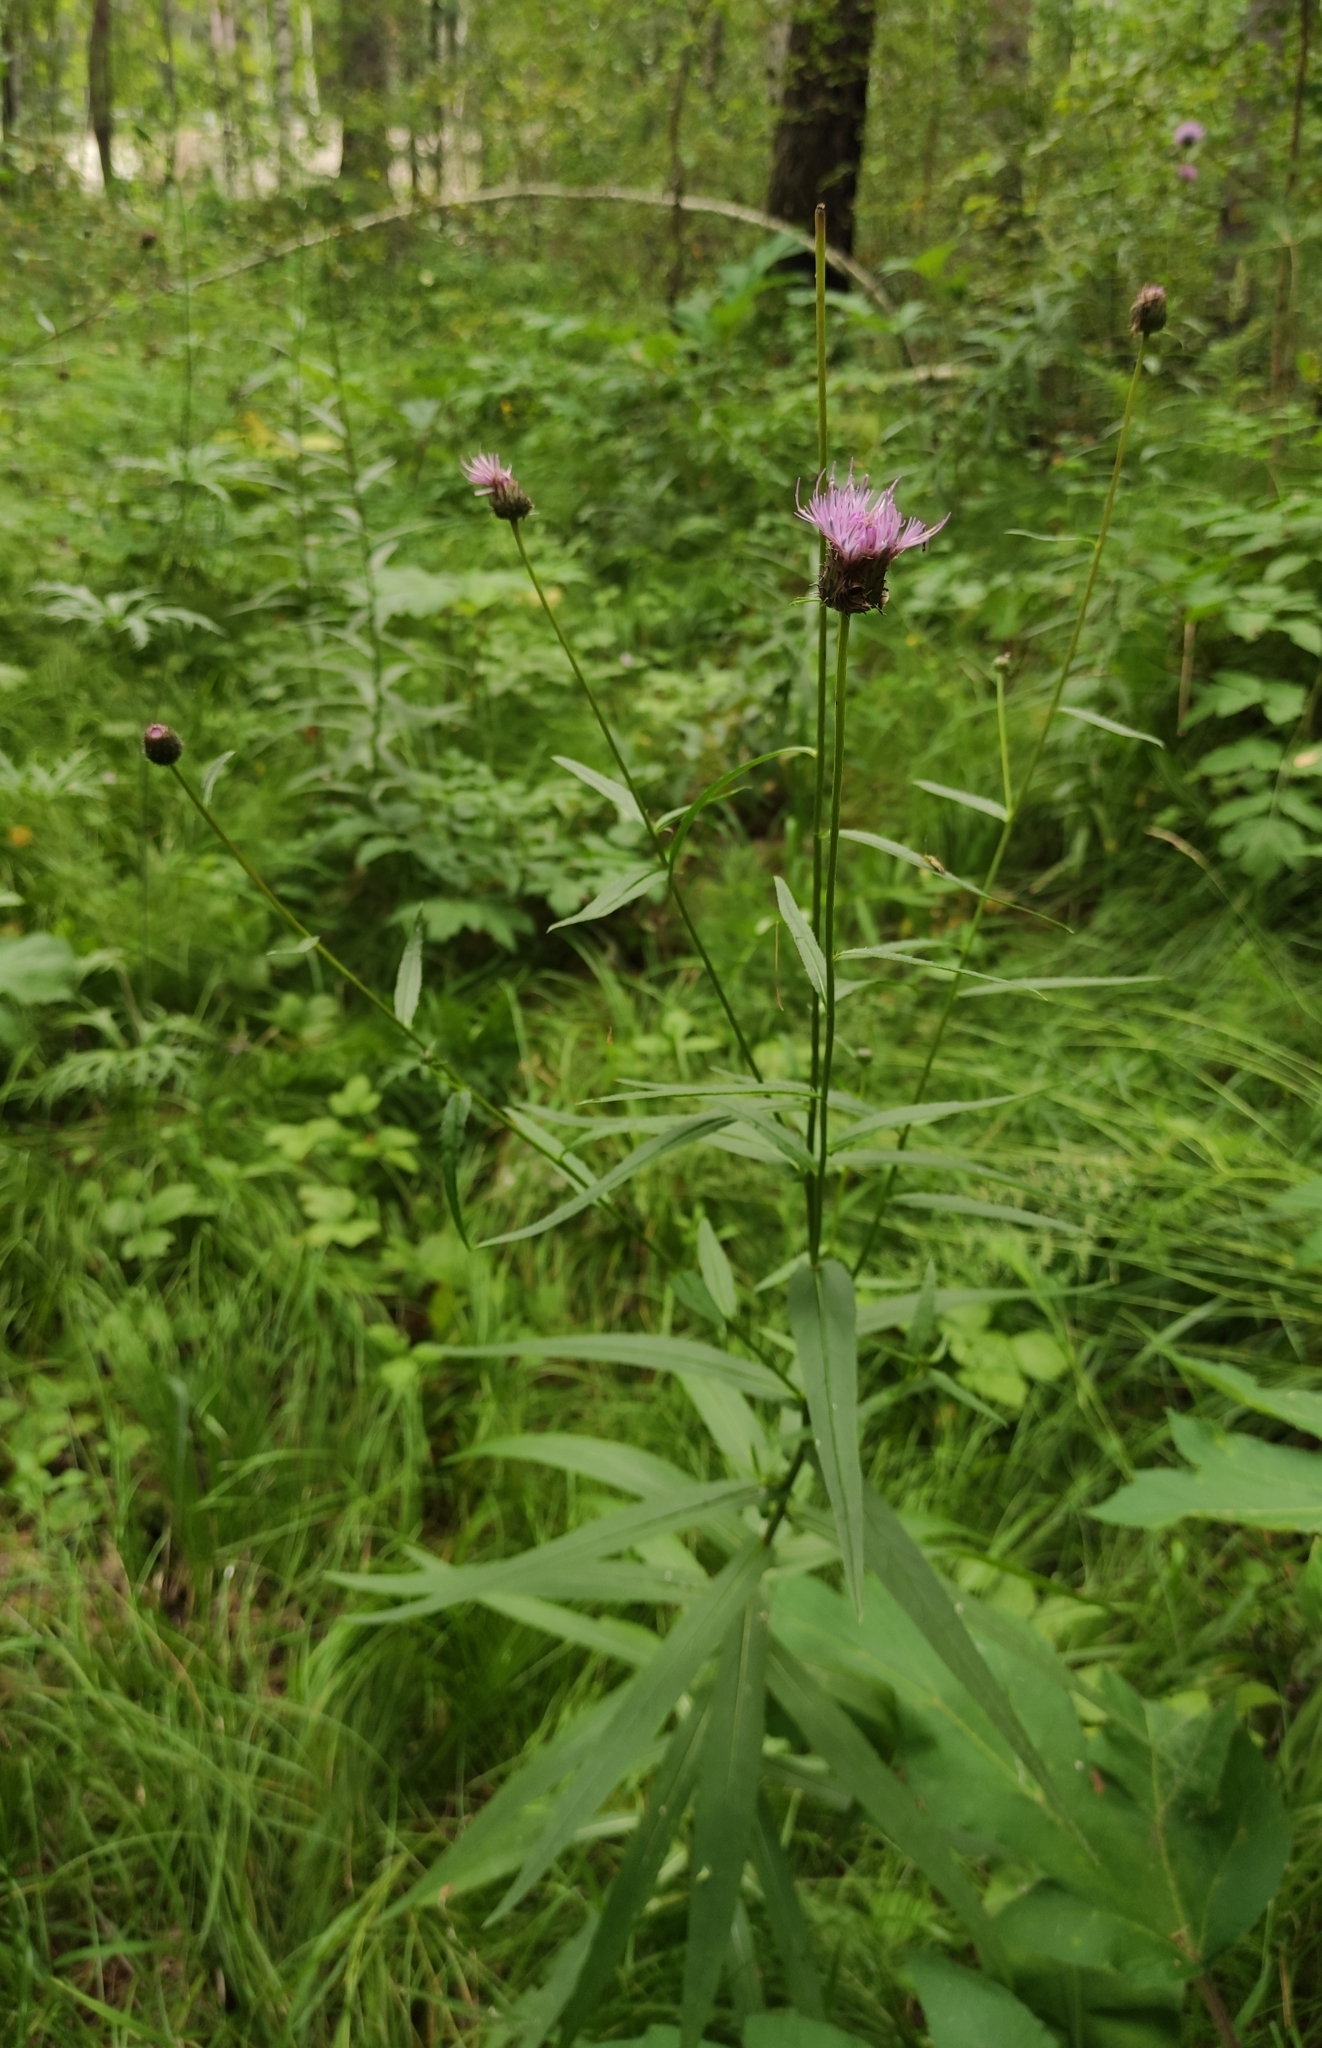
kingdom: Plantae
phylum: Tracheophyta
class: Magnoliopsida
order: Asterales
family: Asteraceae
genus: Cirsium
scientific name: Cirsium serratuloides
